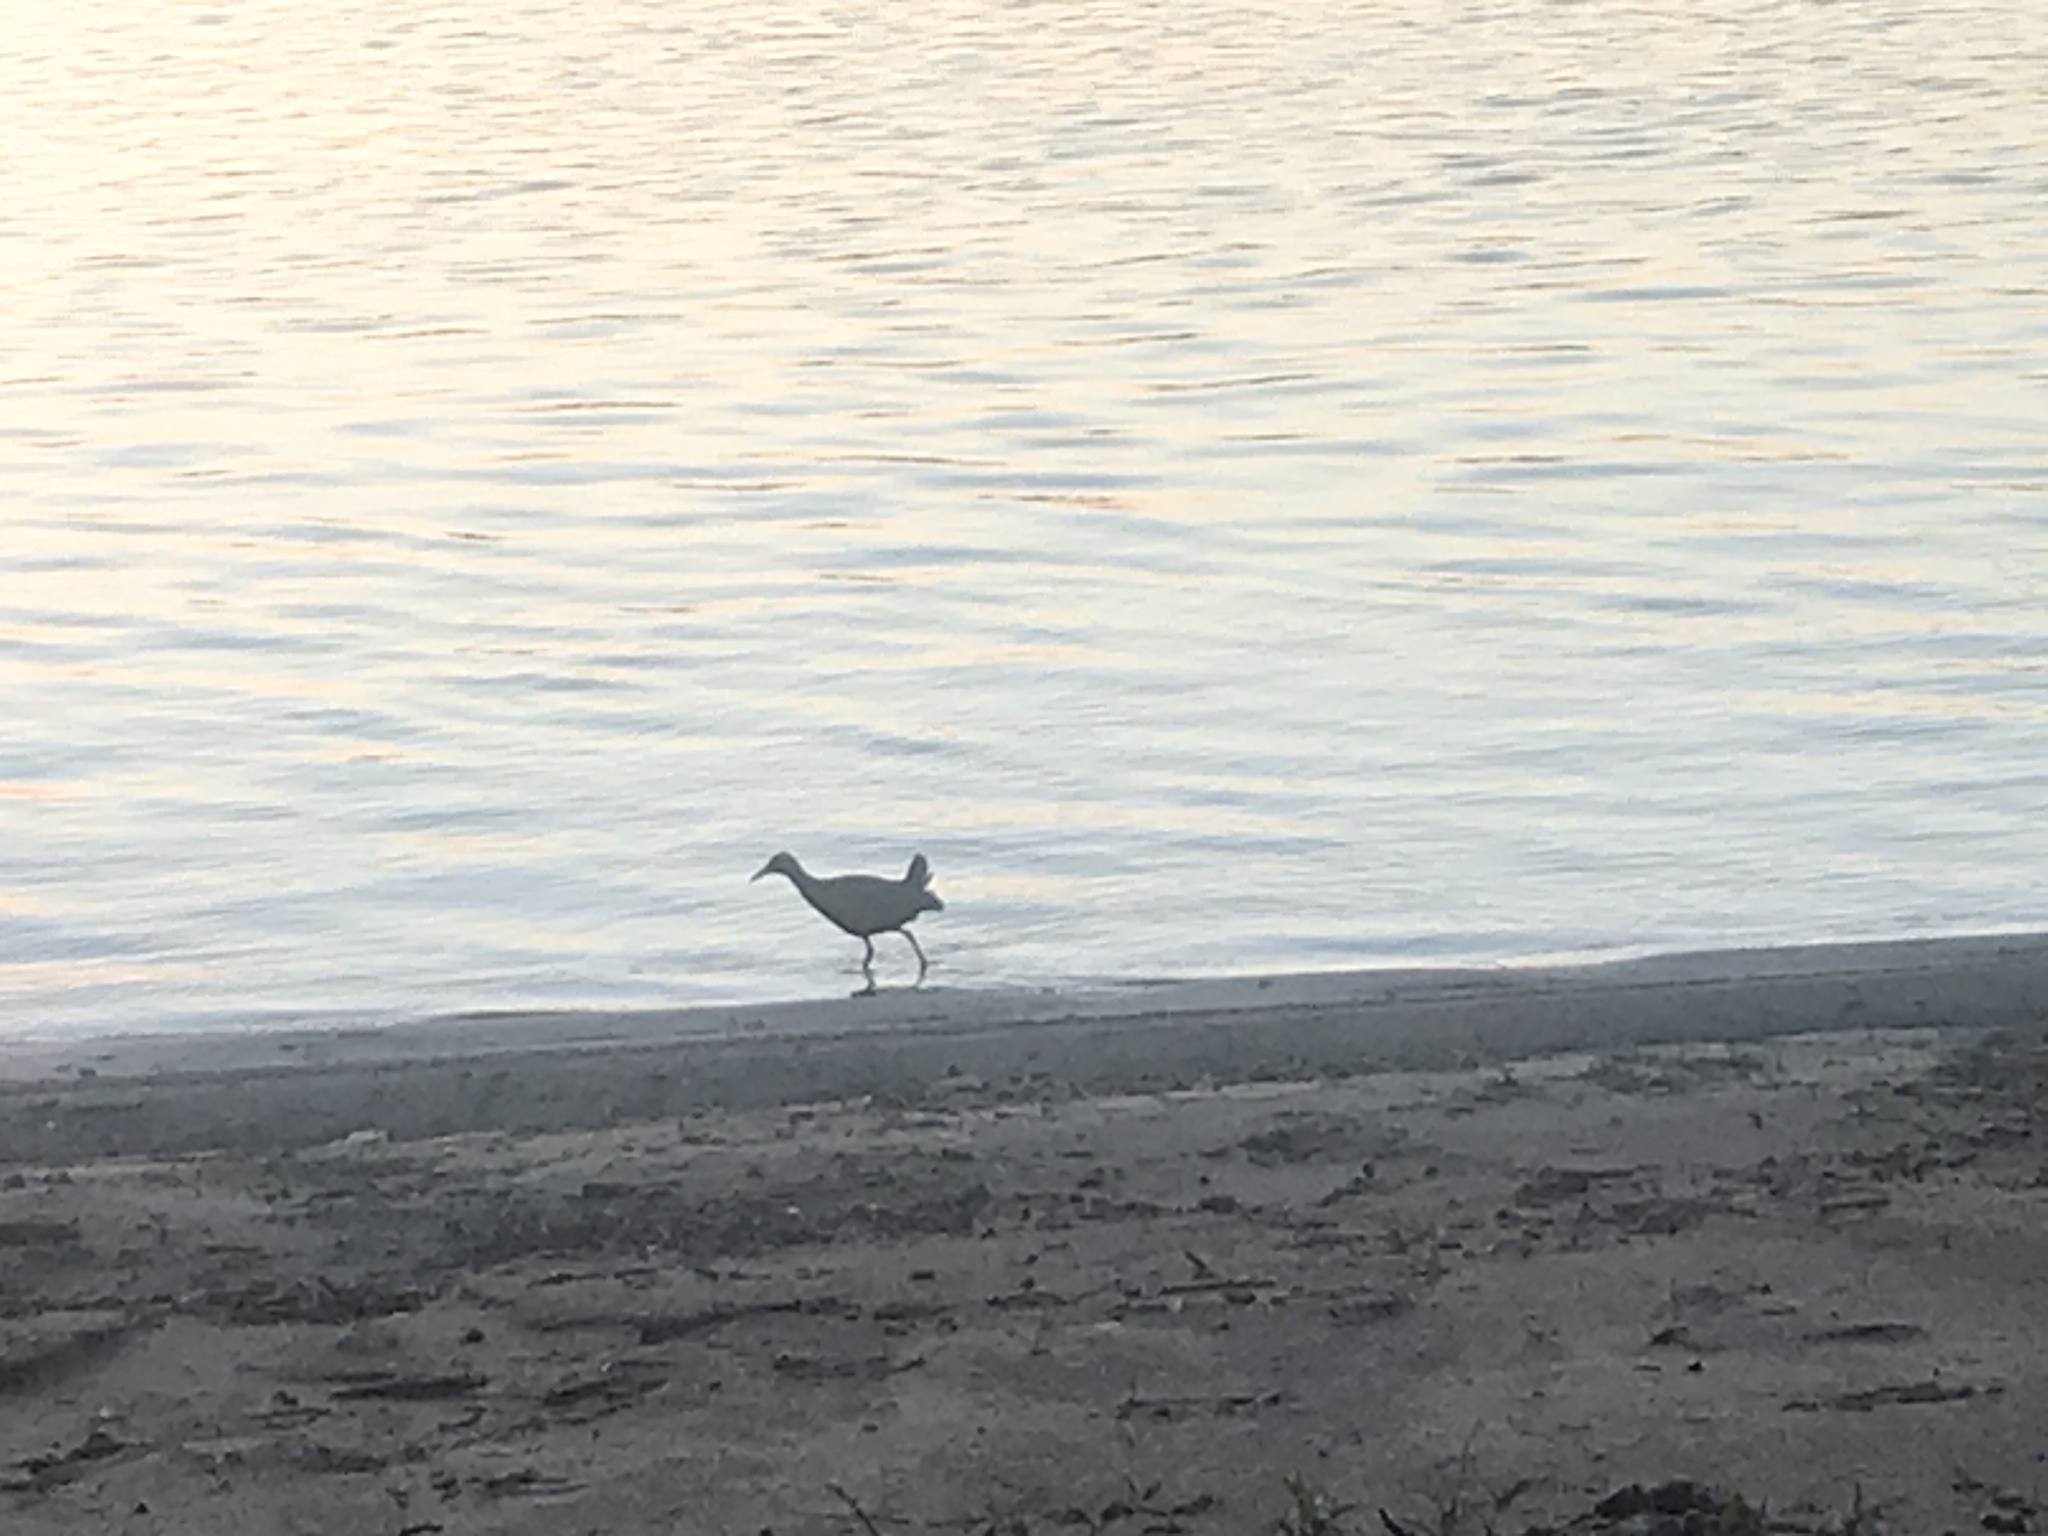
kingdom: Animalia
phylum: Chordata
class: Aves
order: Gruiformes
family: Rallidae
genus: Aramides
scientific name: Aramides cajanea
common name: Gray-necked wood-rail
